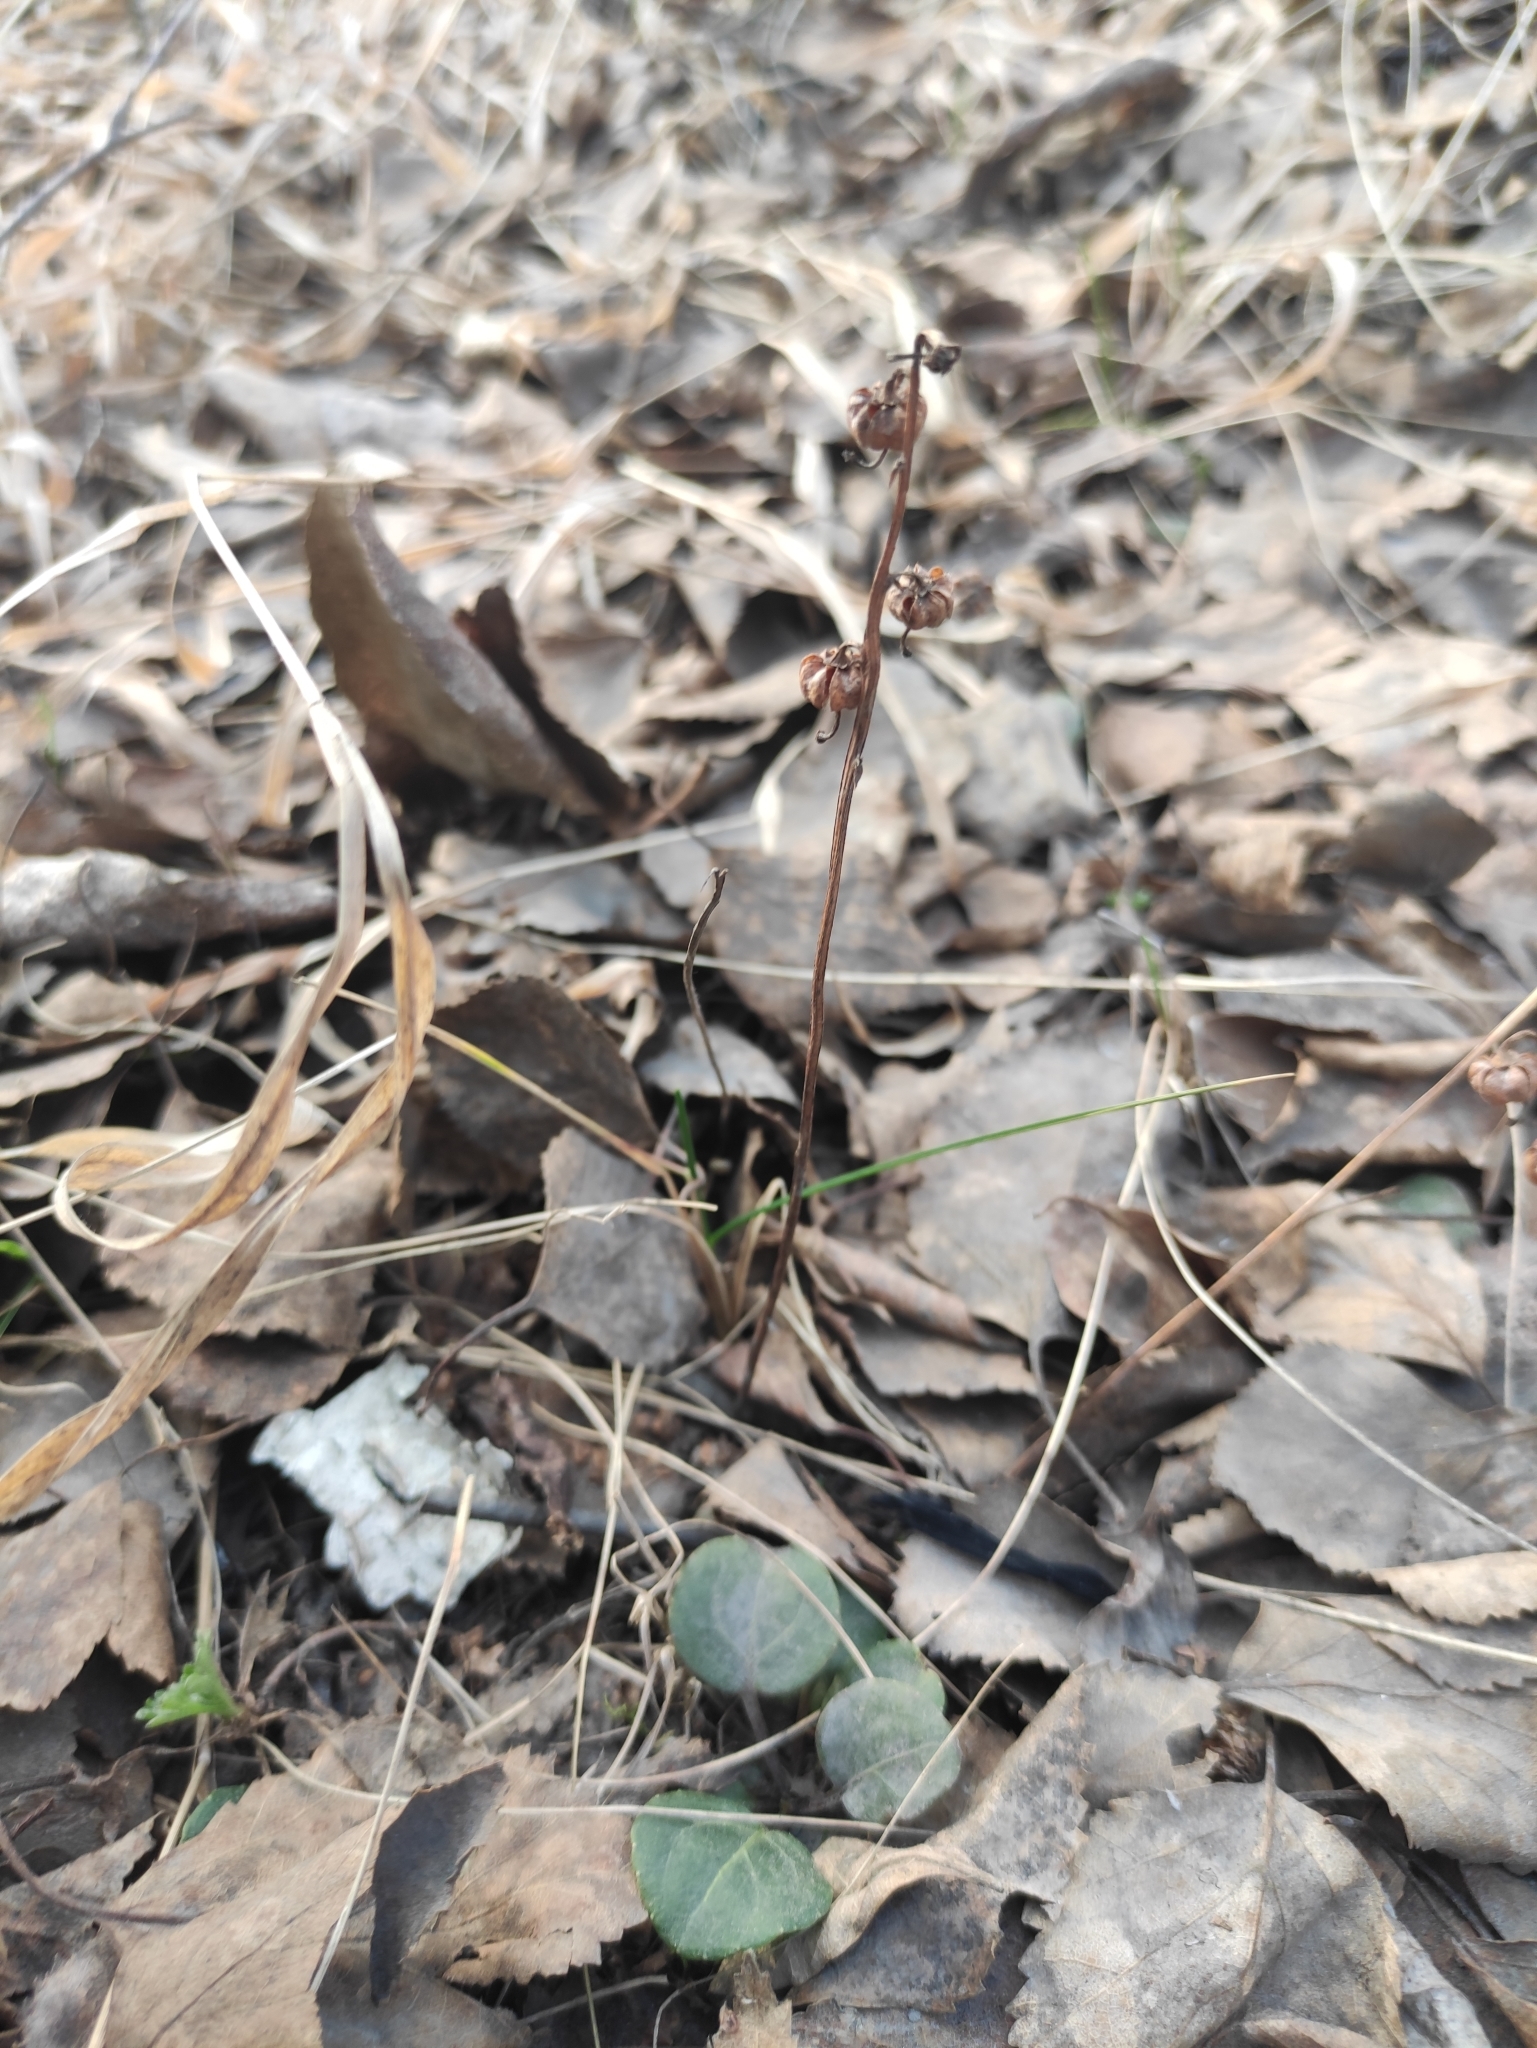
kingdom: Plantae
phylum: Tracheophyta
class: Magnoliopsida
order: Ericales
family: Ericaceae
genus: Pyrola
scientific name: Pyrola chlorantha
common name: Green wintergreen
